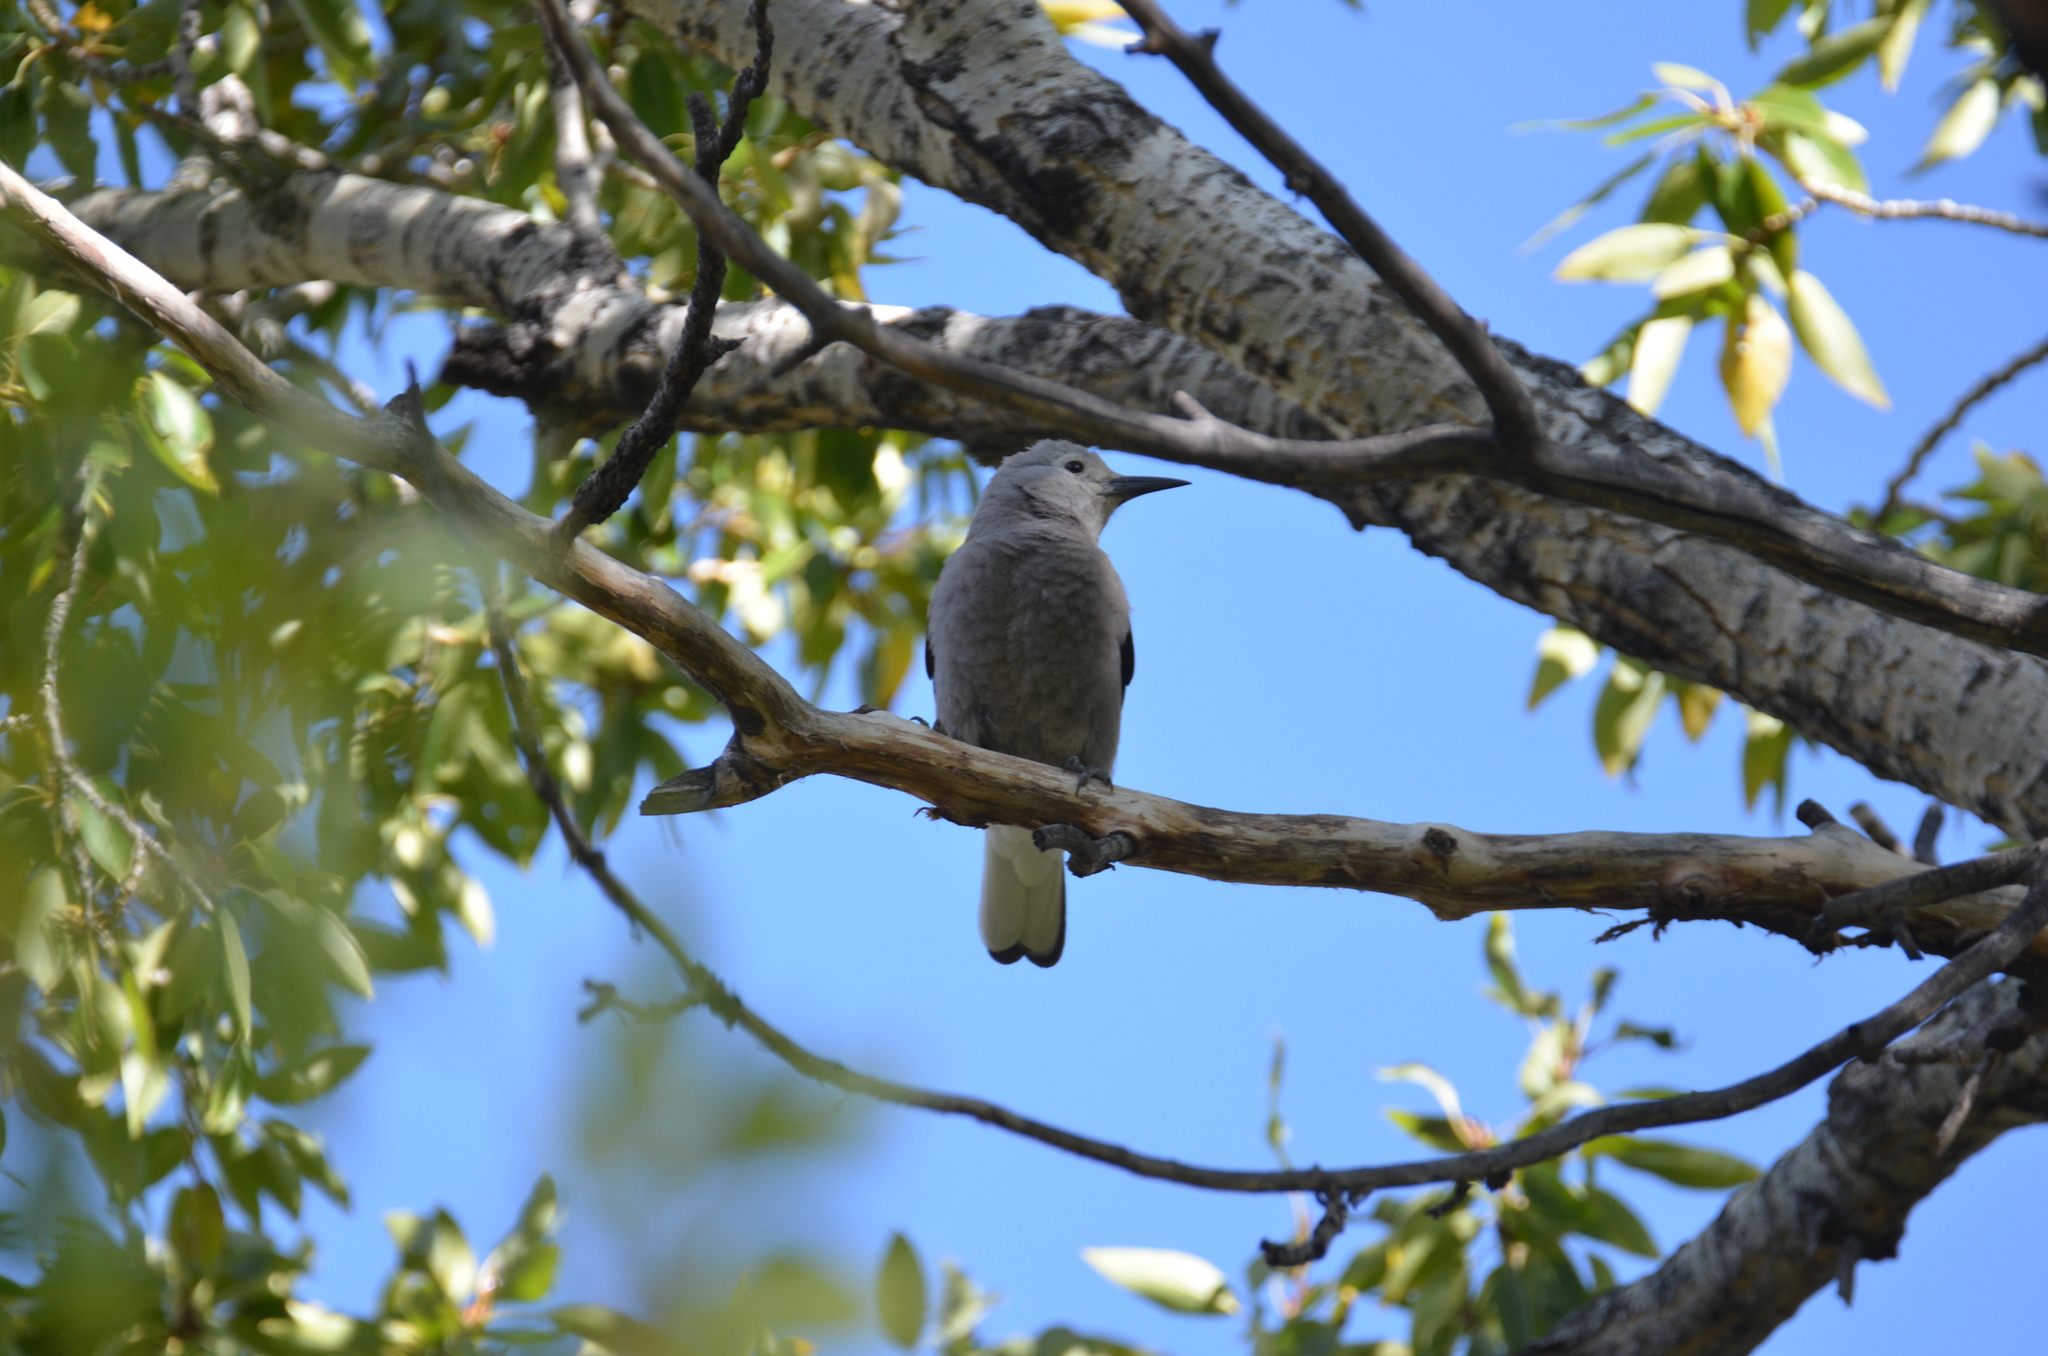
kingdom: Animalia
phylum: Chordata
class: Aves
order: Passeriformes
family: Corvidae
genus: Nucifraga
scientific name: Nucifraga columbiana
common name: Clark's nutcracker
